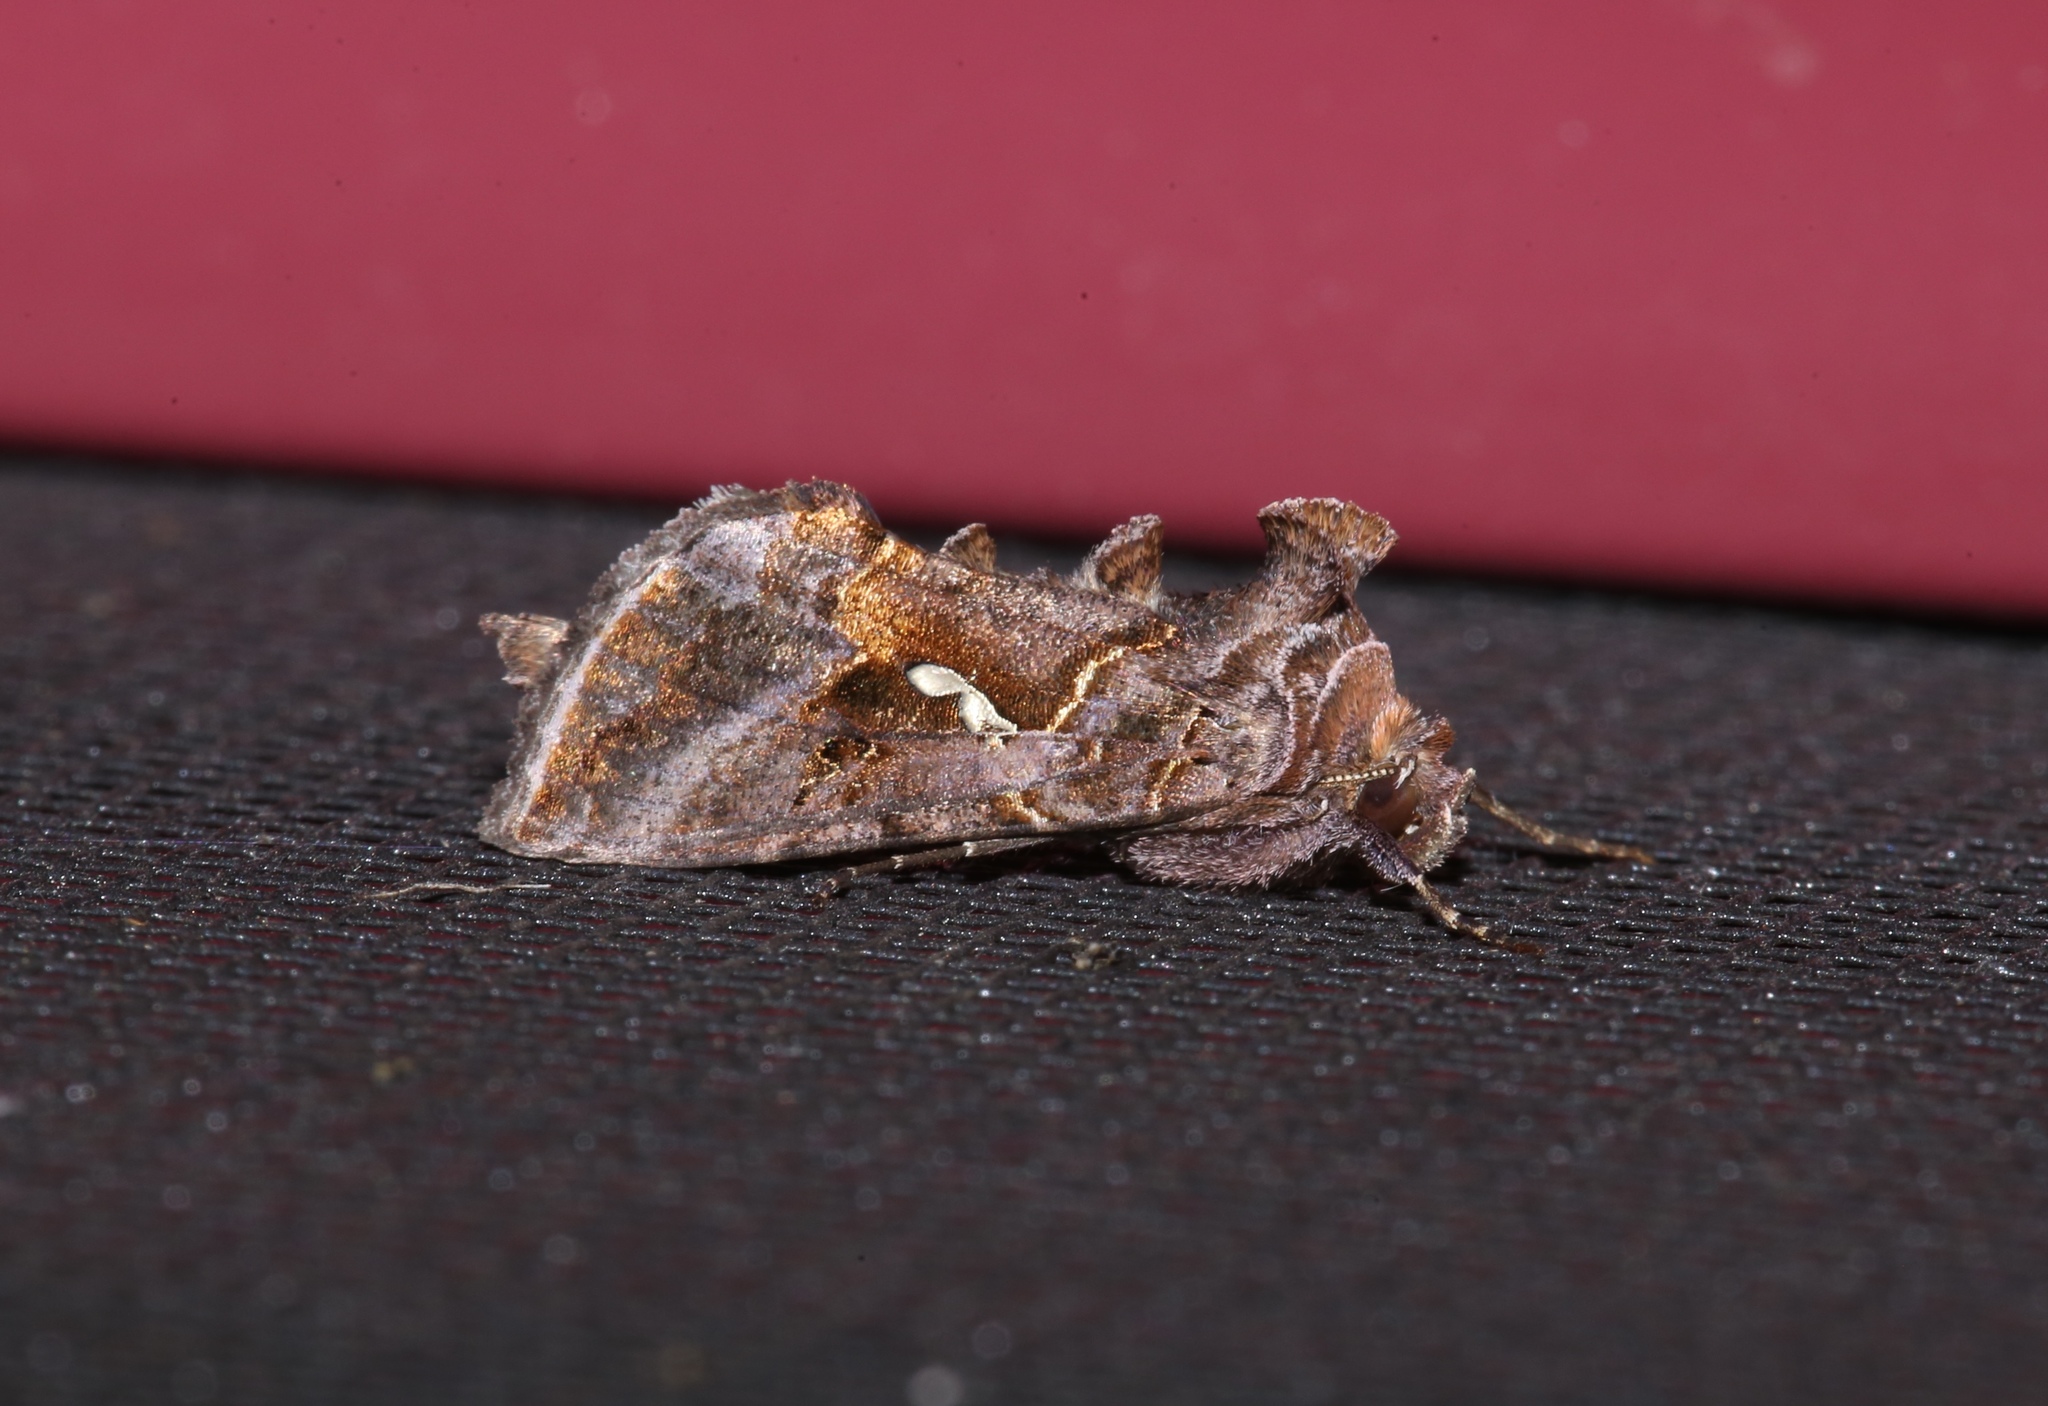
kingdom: Animalia
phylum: Arthropoda
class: Insecta
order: Lepidoptera
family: Noctuidae
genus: Autographa
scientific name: Autographa precationis
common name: Common looper moth
